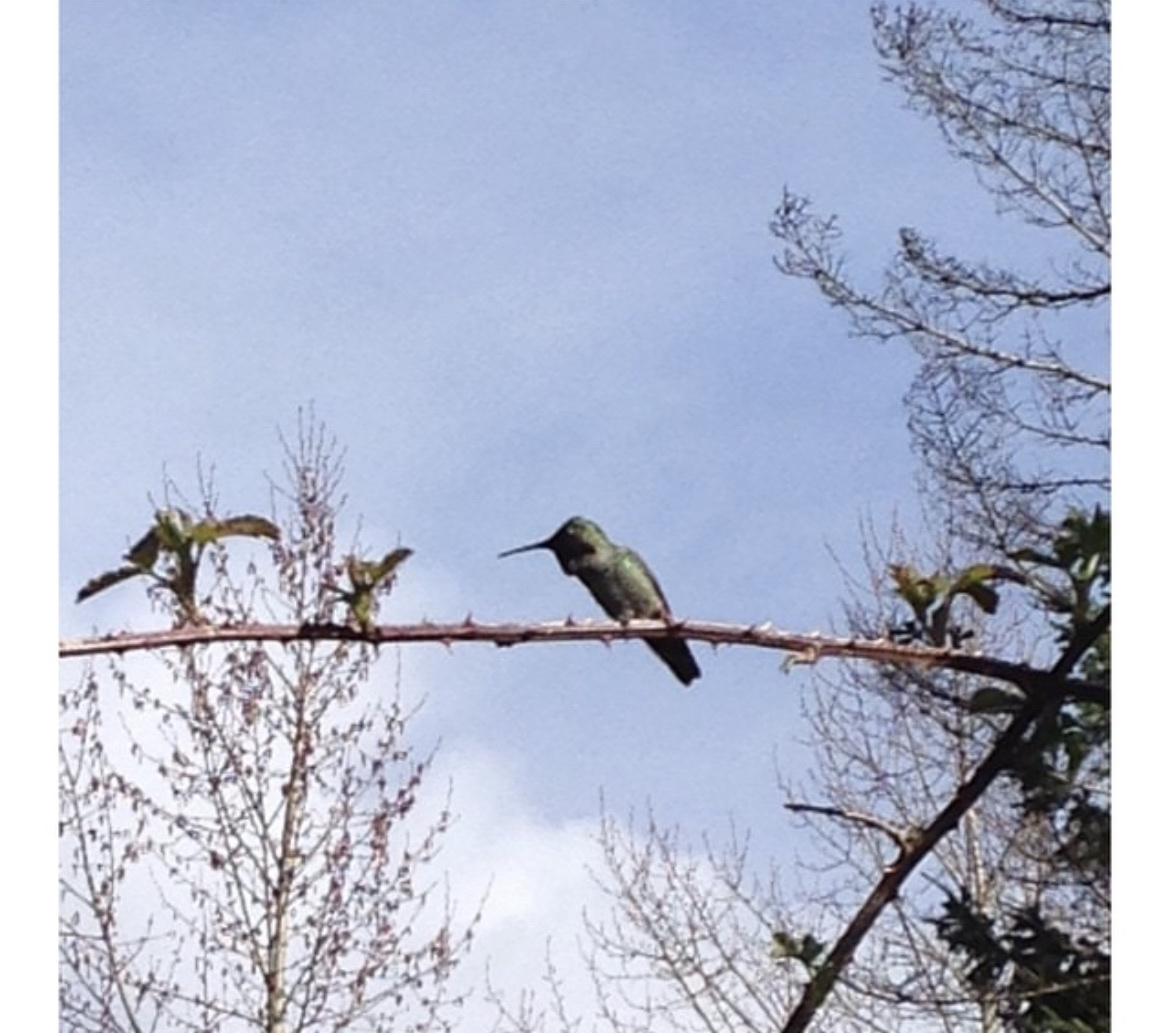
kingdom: Animalia
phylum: Chordata
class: Aves
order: Apodiformes
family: Trochilidae
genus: Calypte
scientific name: Calypte anna
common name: Anna's hummingbird
